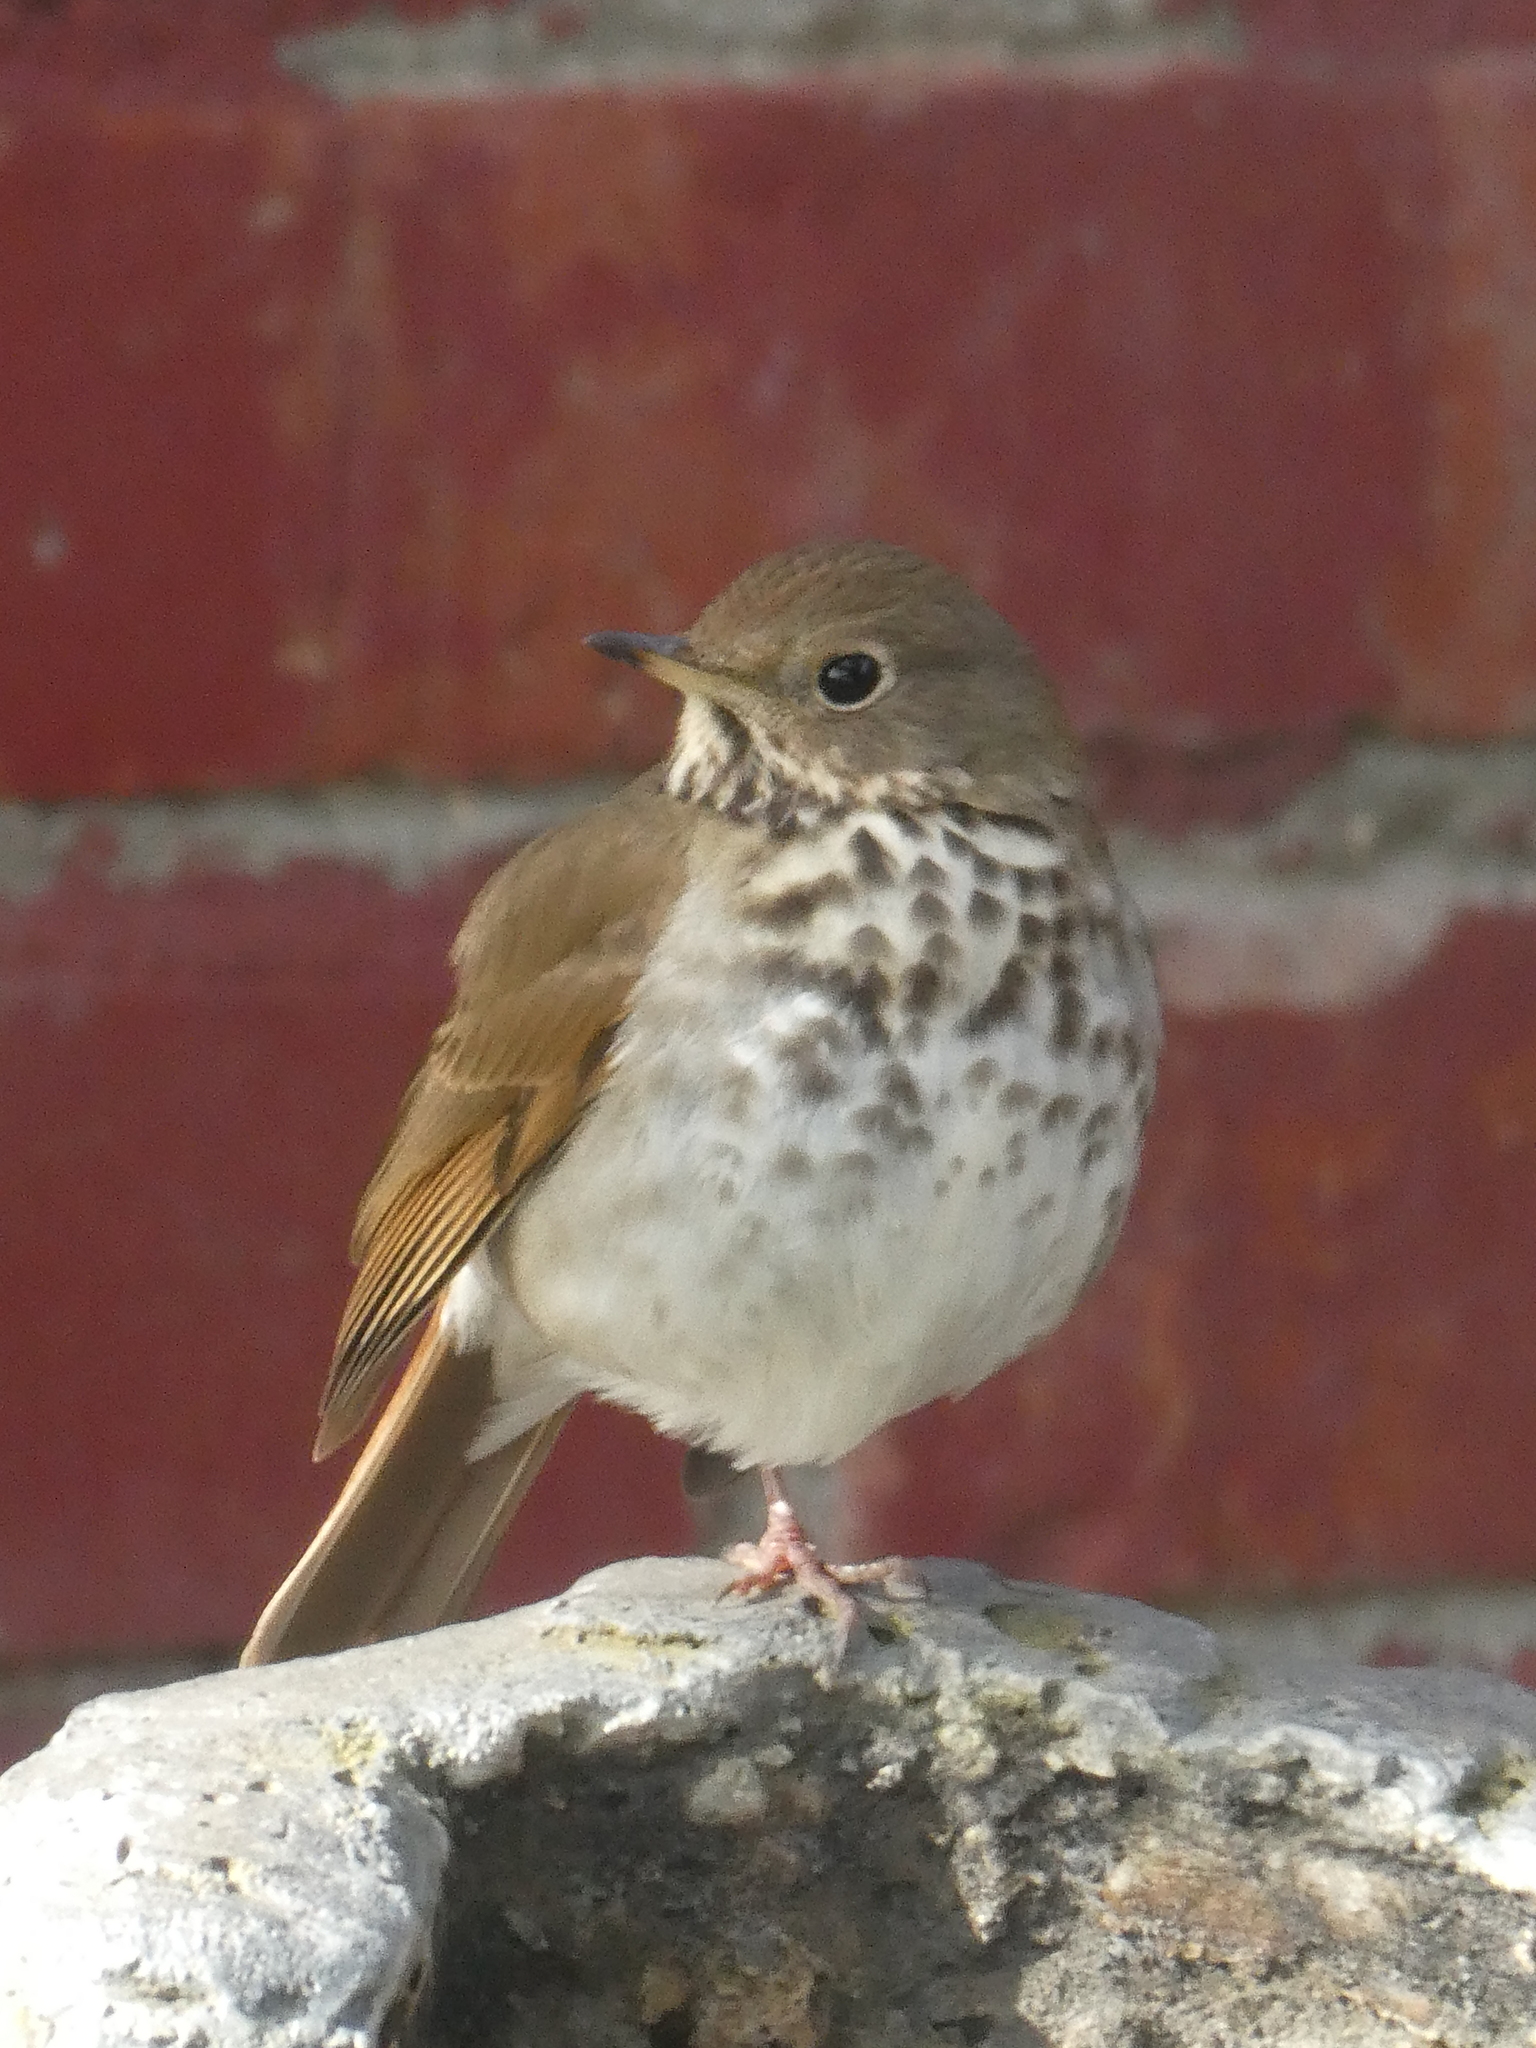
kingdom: Animalia
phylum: Chordata
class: Aves
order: Passeriformes
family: Turdidae
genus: Catharus
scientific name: Catharus guttatus
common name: Hermit thrush
